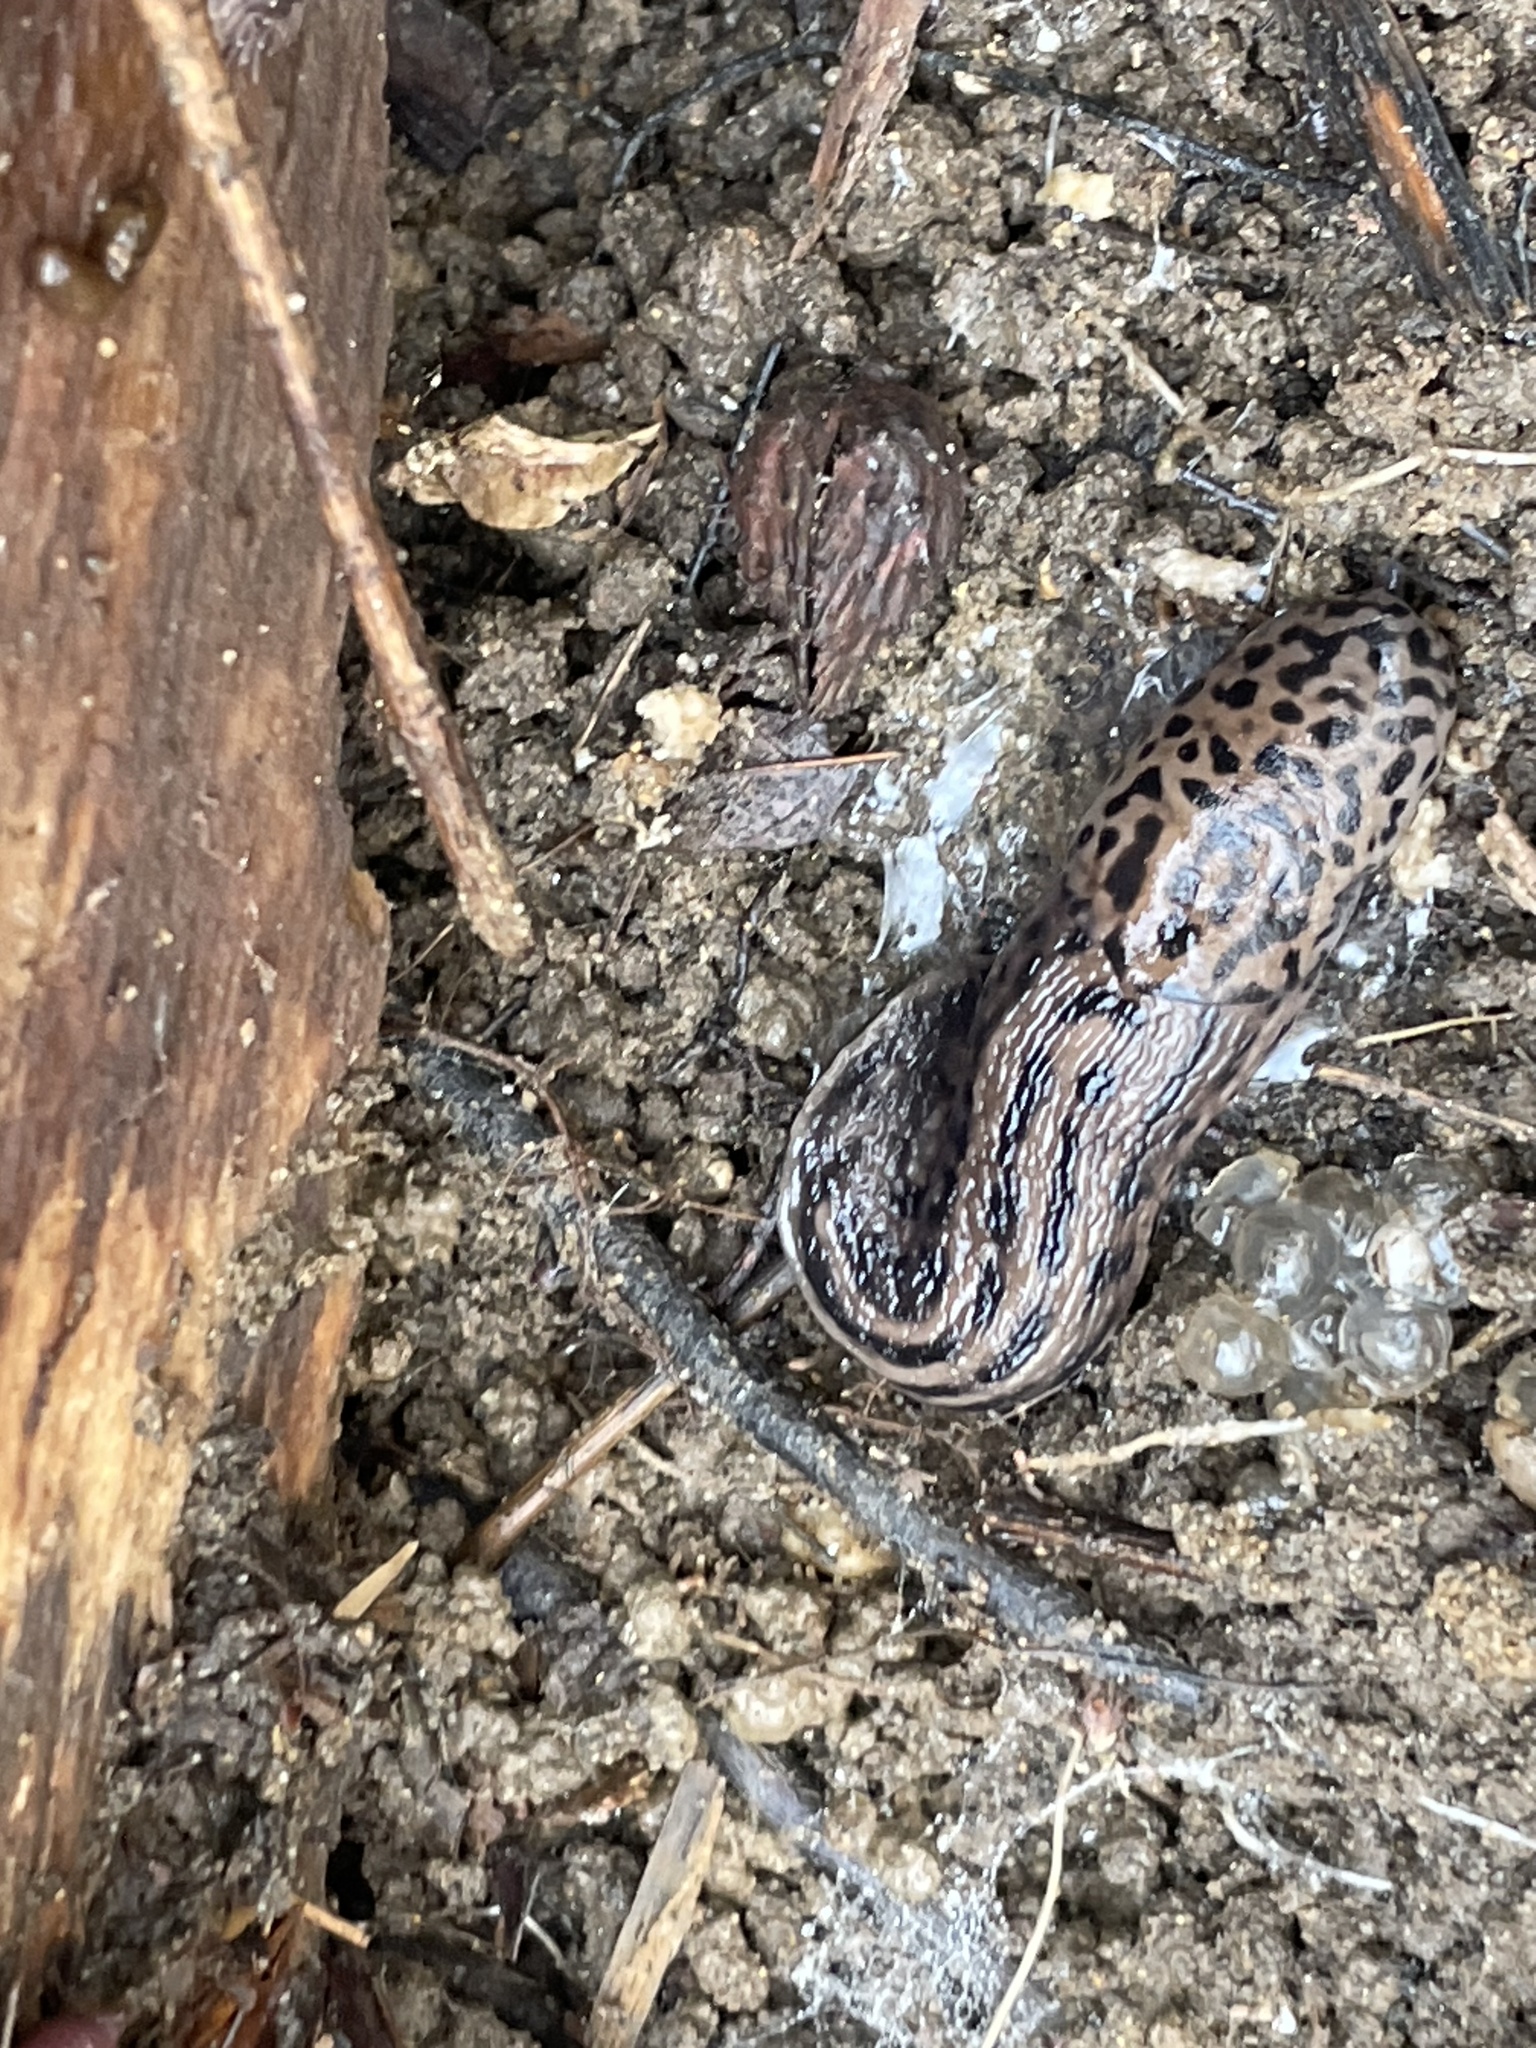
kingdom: Animalia
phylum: Mollusca
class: Gastropoda
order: Stylommatophora
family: Limacidae
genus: Limax
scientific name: Limax maximus
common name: Great grey slug
